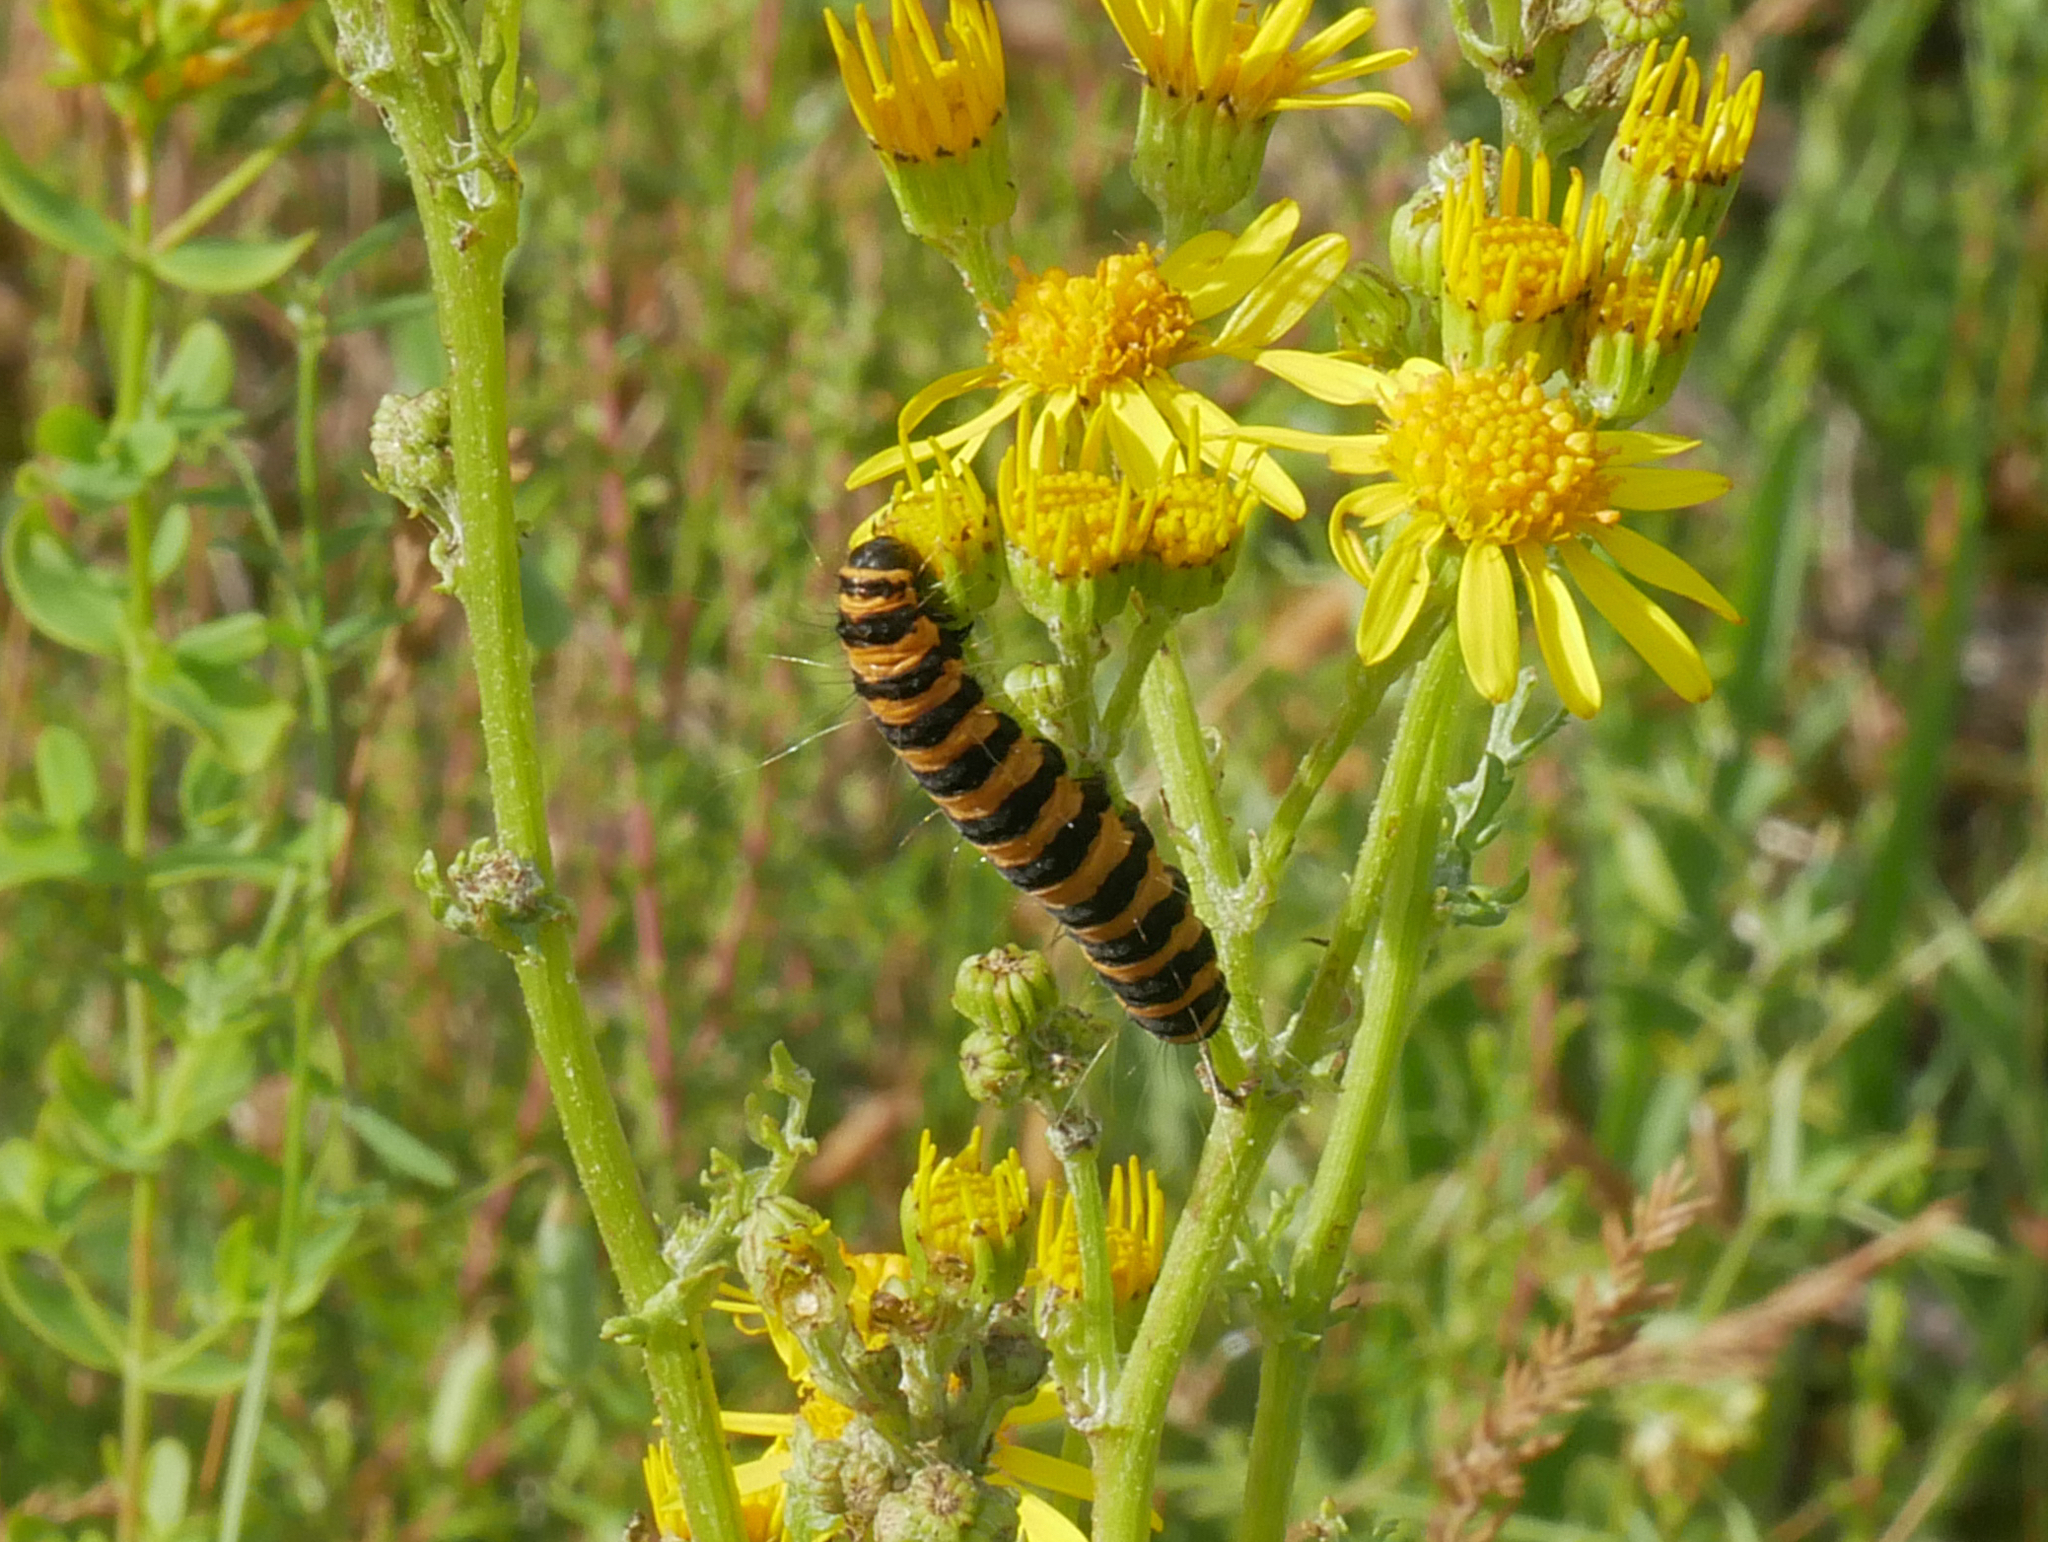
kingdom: Animalia
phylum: Arthropoda
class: Insecta
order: Lepidoptera
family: Erebidae
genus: Tyria
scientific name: Tyria jacobaeae
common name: Cinnabar
